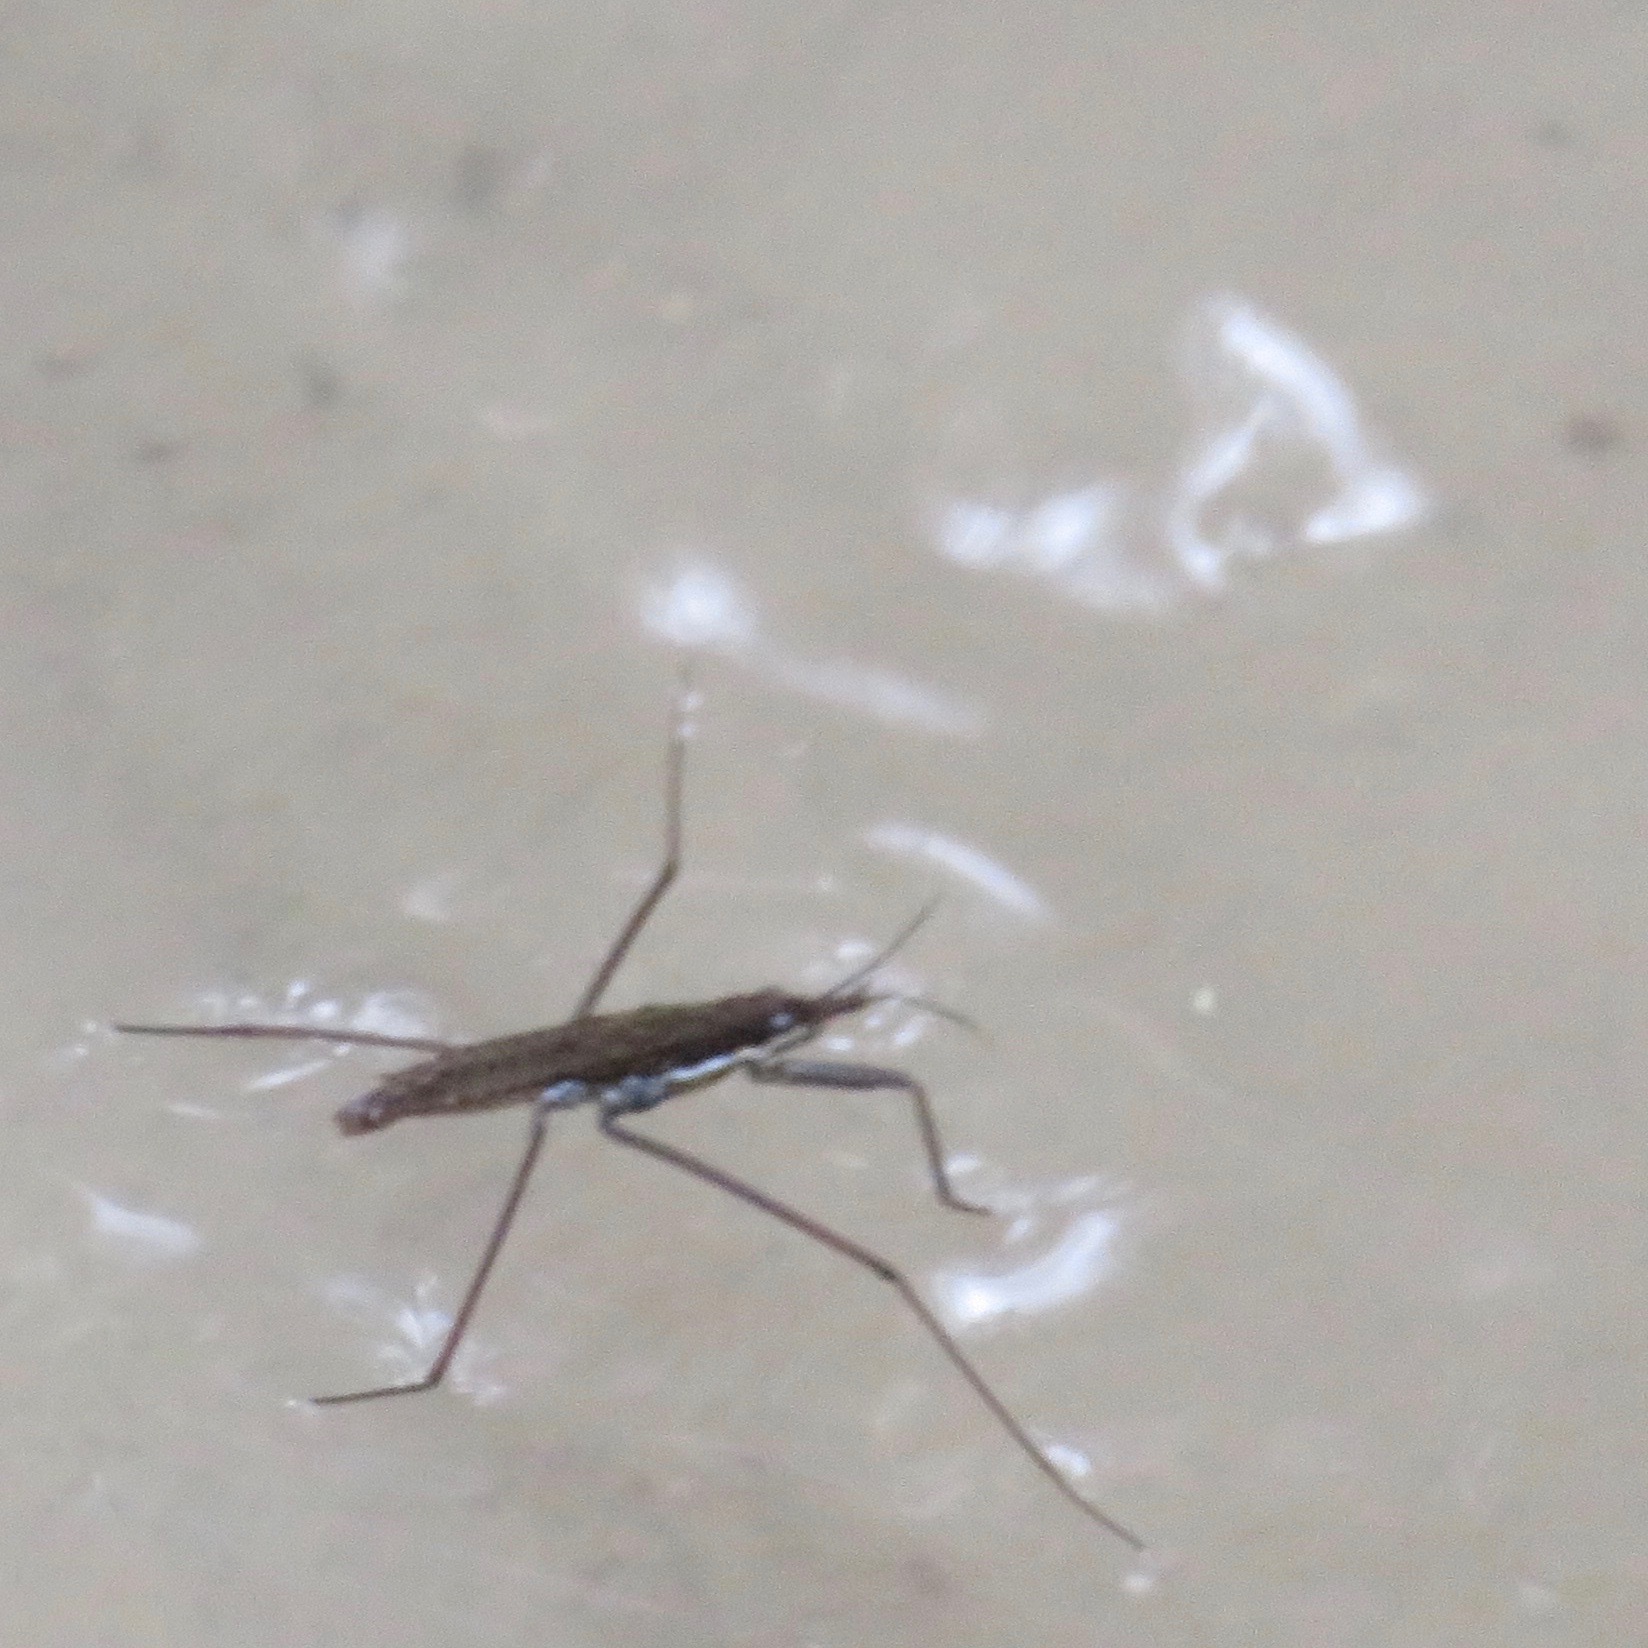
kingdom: Animalia
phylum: Arthropoda
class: Insecta
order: Hemiptera
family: Gerridae
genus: Aquarius
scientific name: Aquarius remigis
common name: Common water strider
